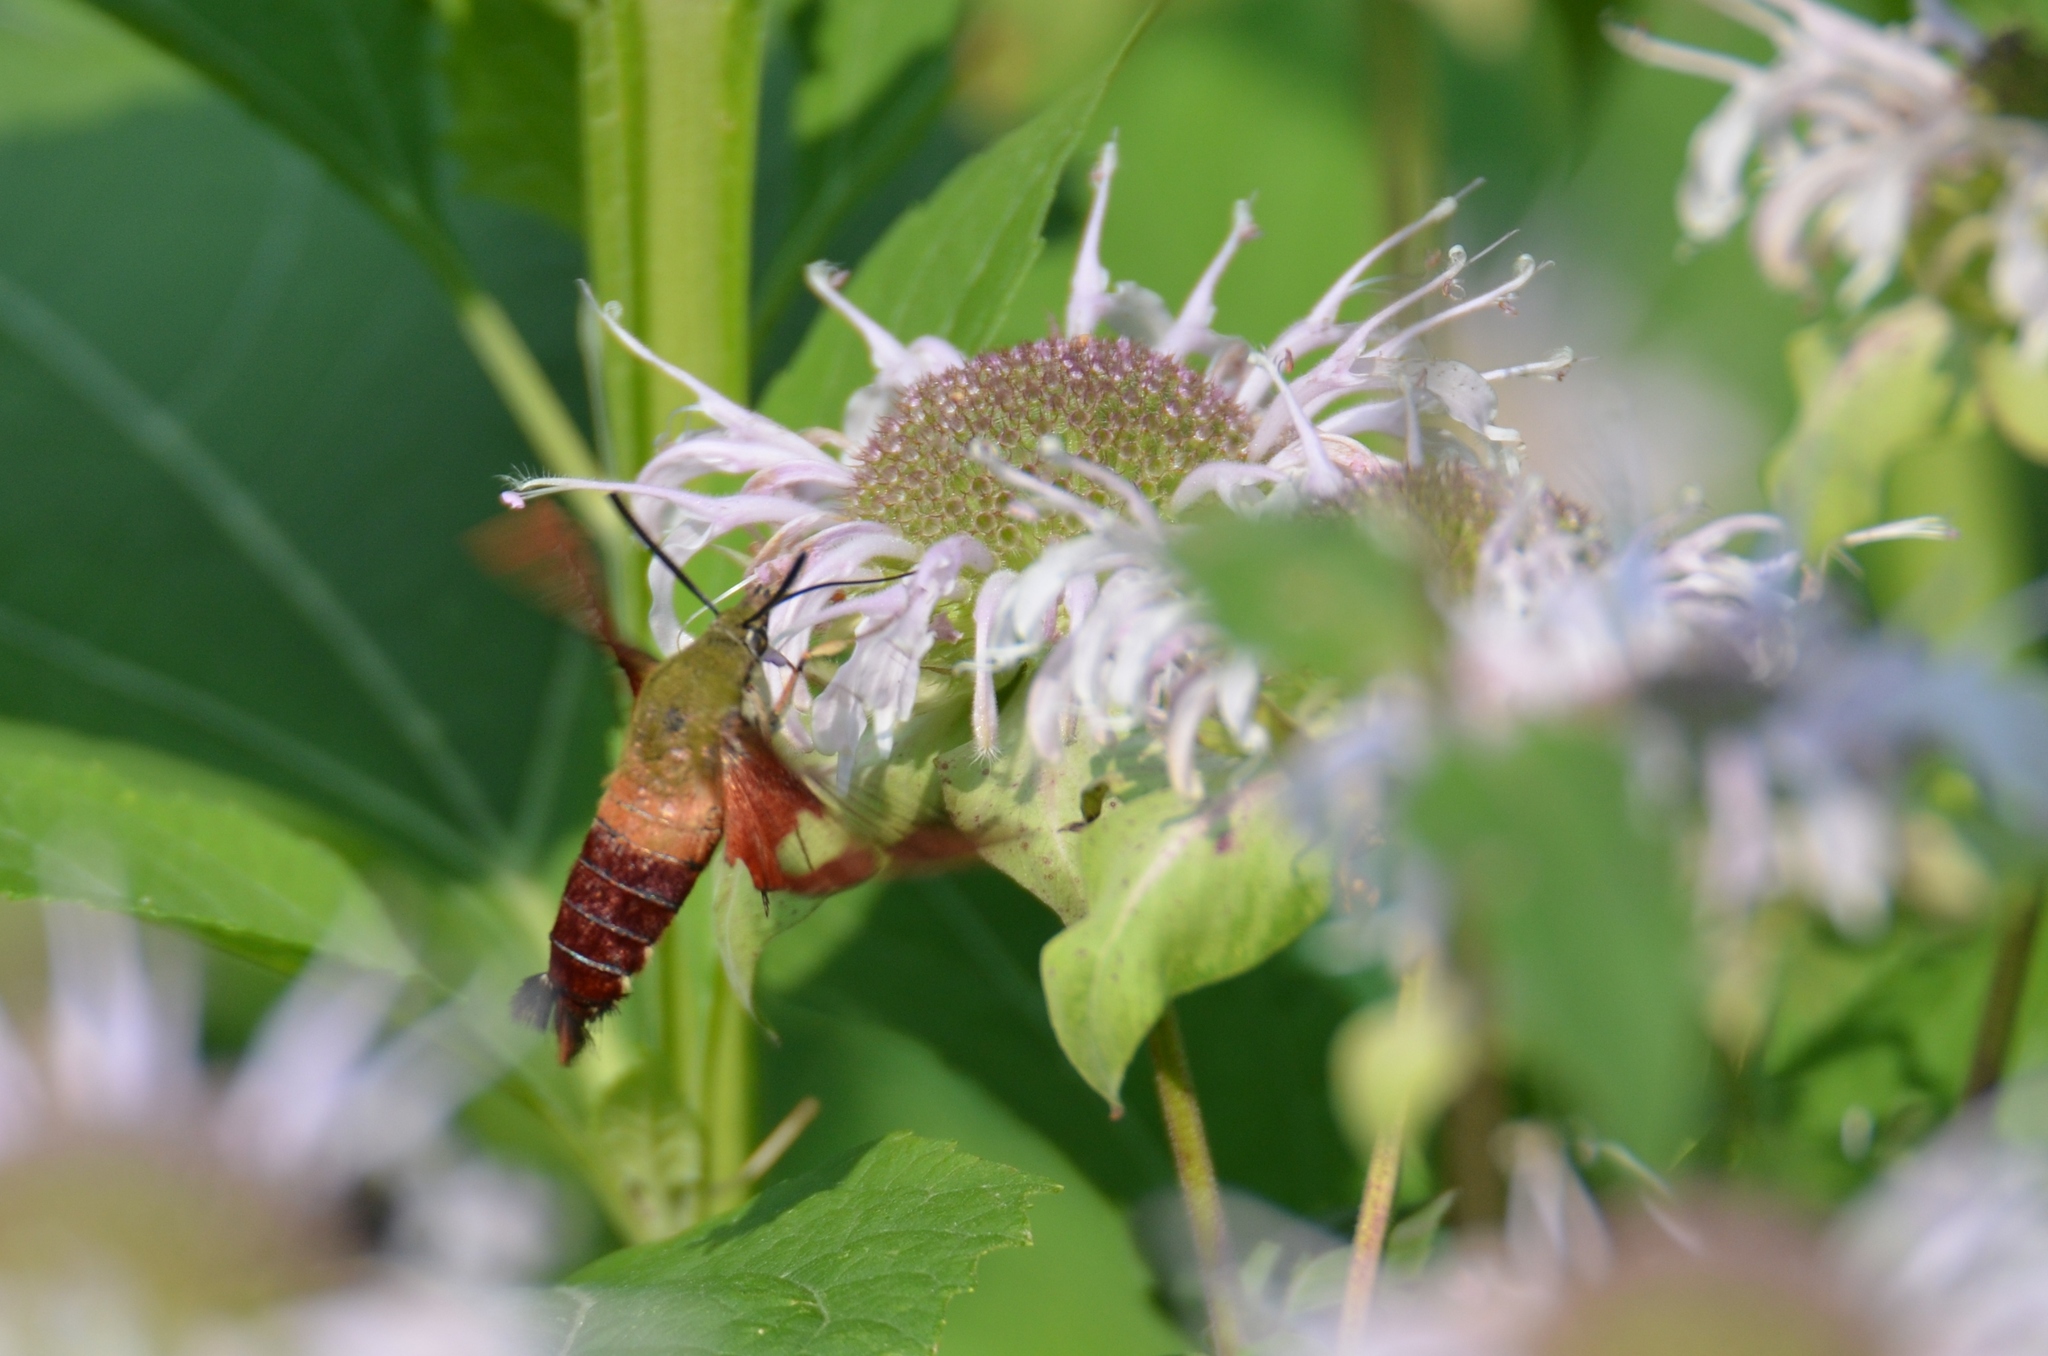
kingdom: Animalia
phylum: Arthropoda
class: Insecta
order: Lepidoptera
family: Sphingidae
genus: Hemaris
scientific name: Hemaris thysbe
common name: Common clear-wing
